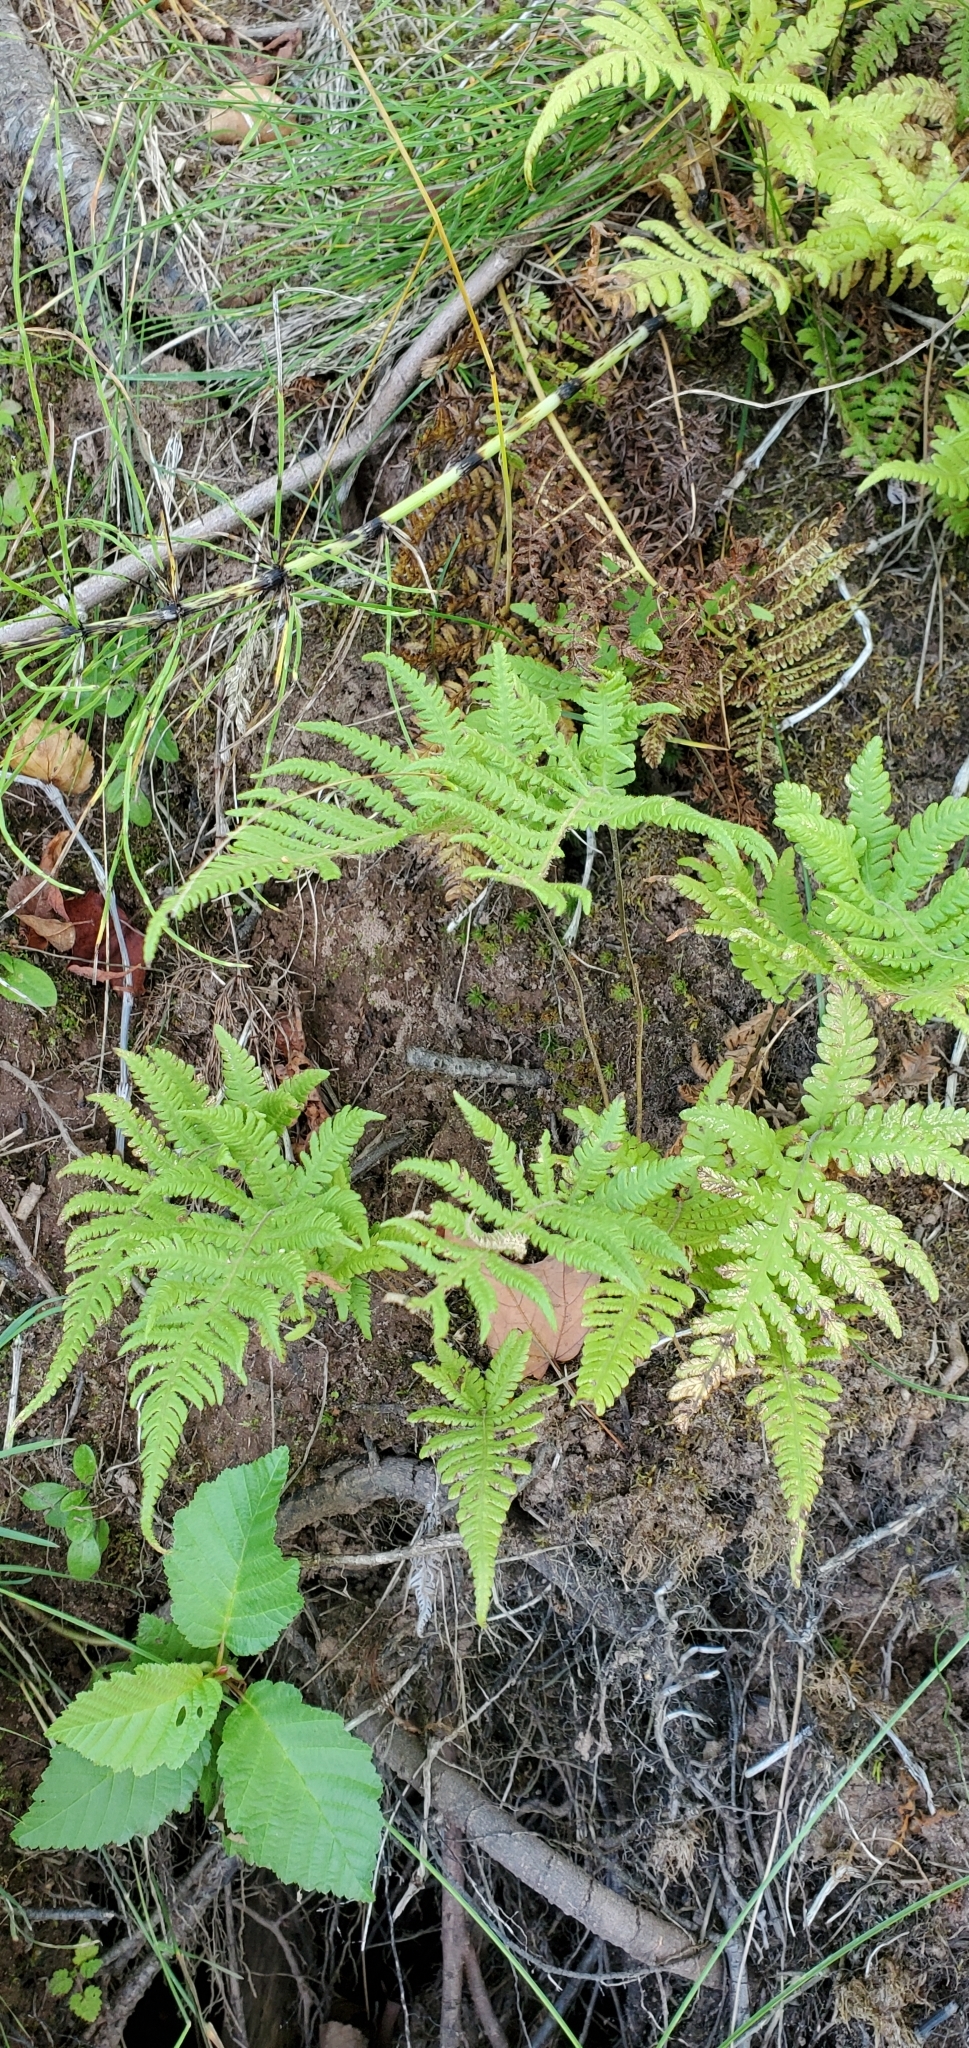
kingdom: Plantae
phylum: Tracheophyta
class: Polypodiopsida
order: Polypodiales
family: Thelypteridaceae
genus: Phegopteris
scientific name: Phegopteris connectilis
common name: Beech fern
